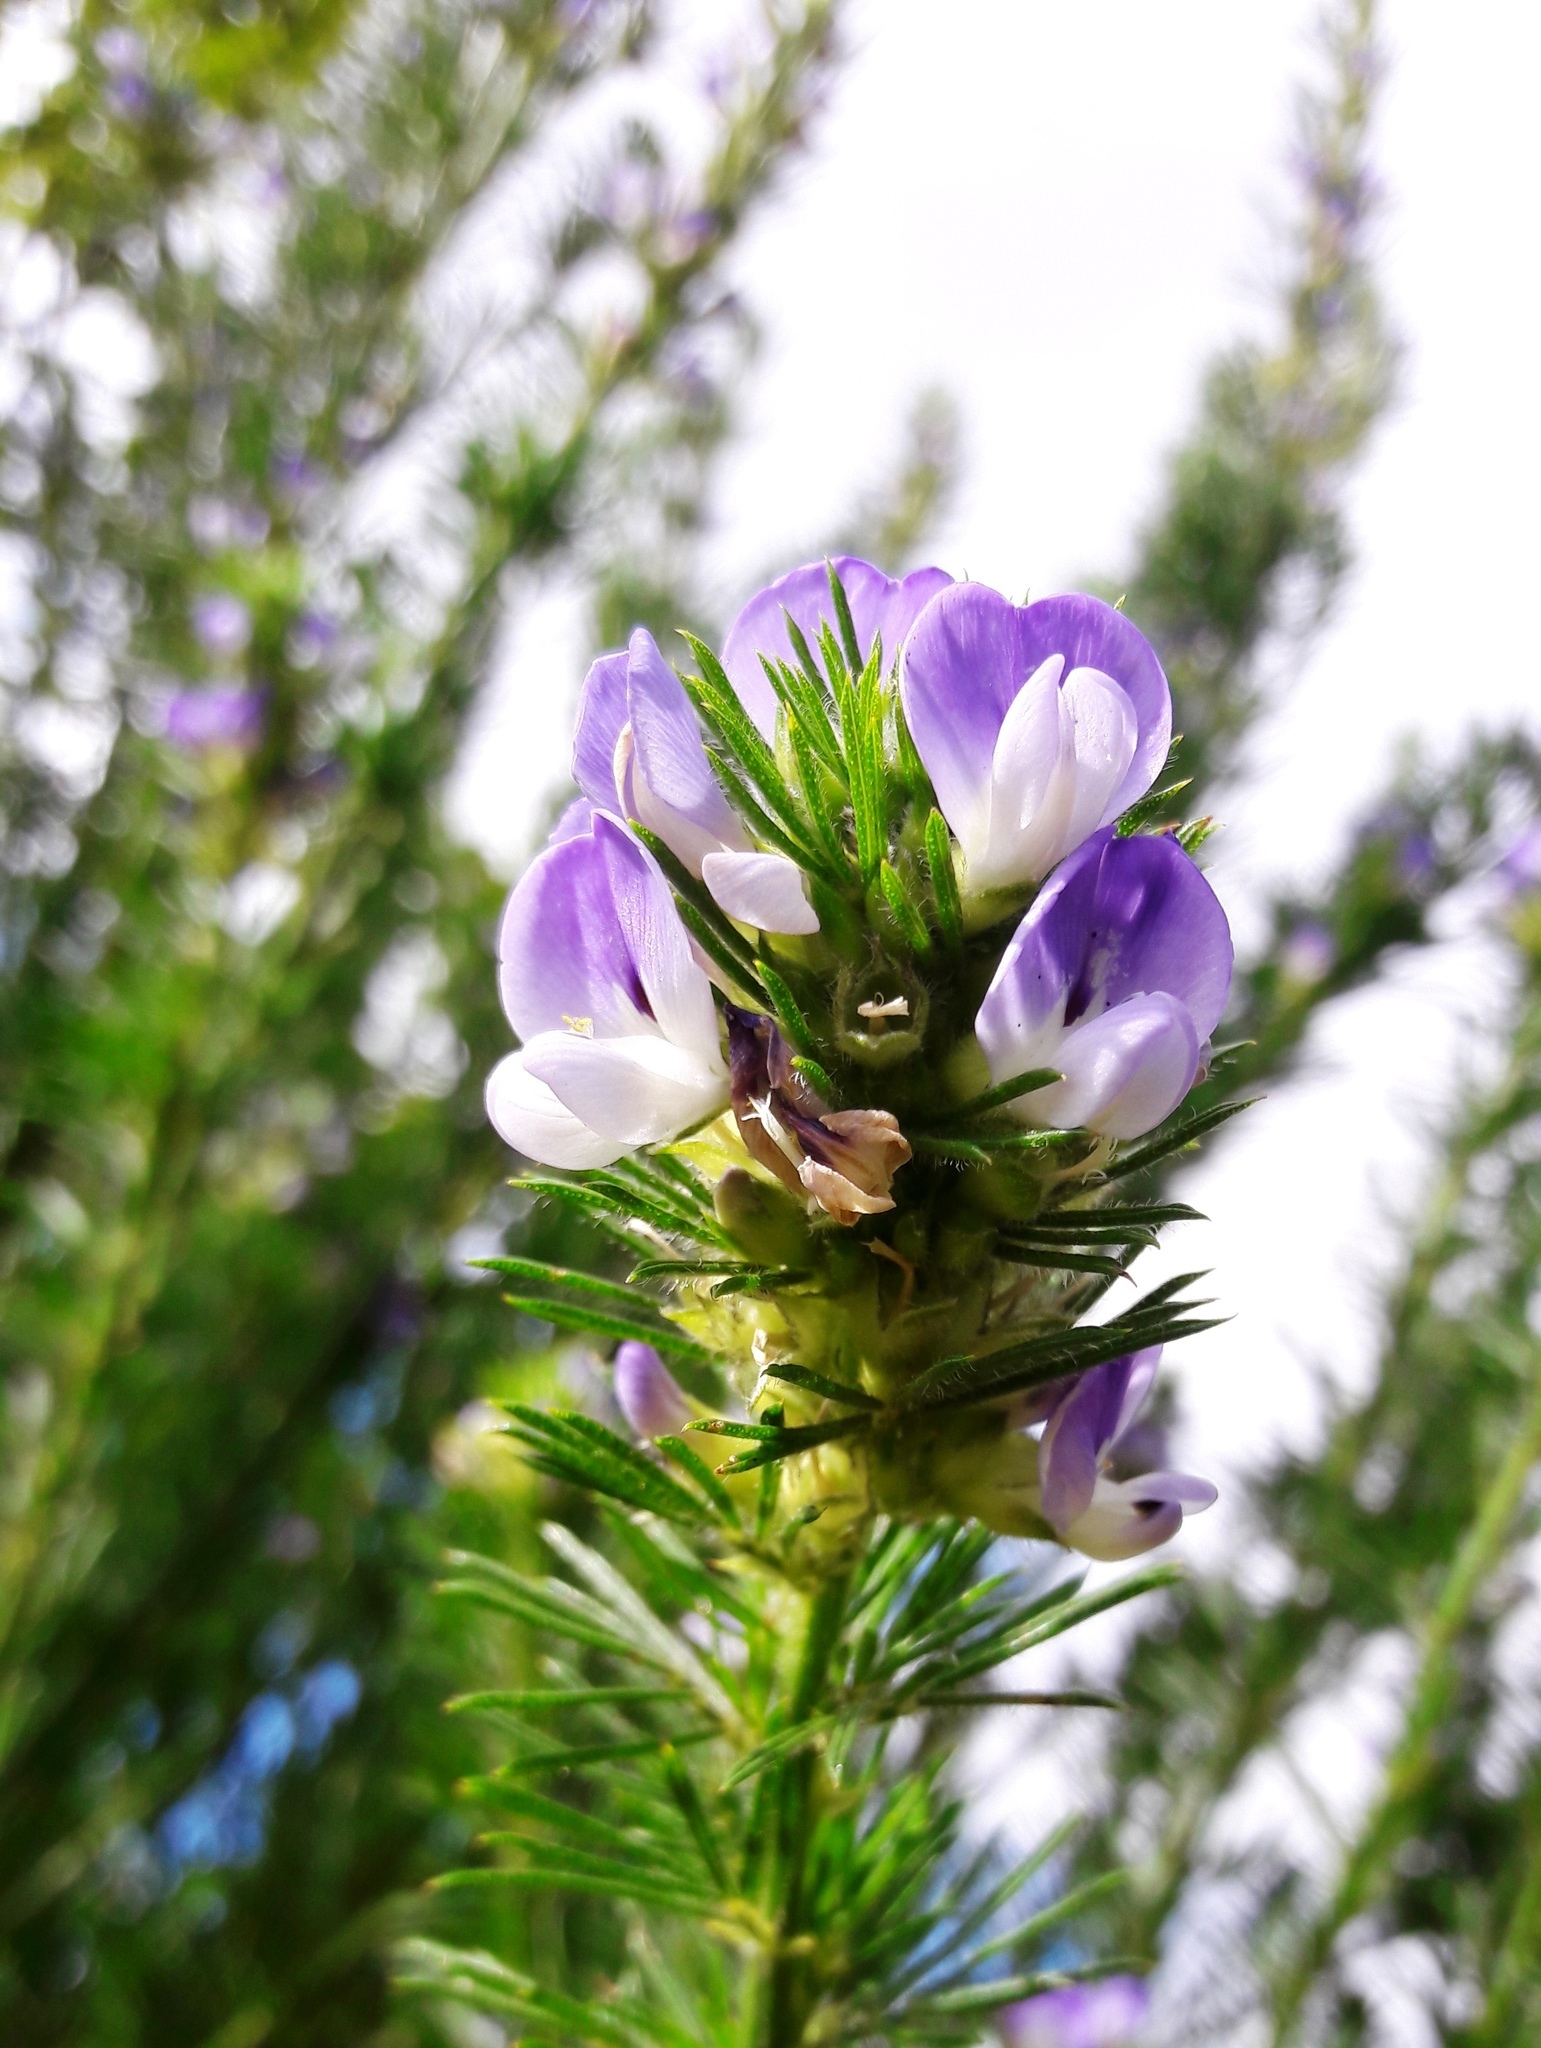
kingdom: Plantae
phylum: Tracheophyta
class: Magnoliopsida
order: Fabales
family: Fabaceae
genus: Psoralea
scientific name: Psoralea pinnata
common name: African scurfpea
